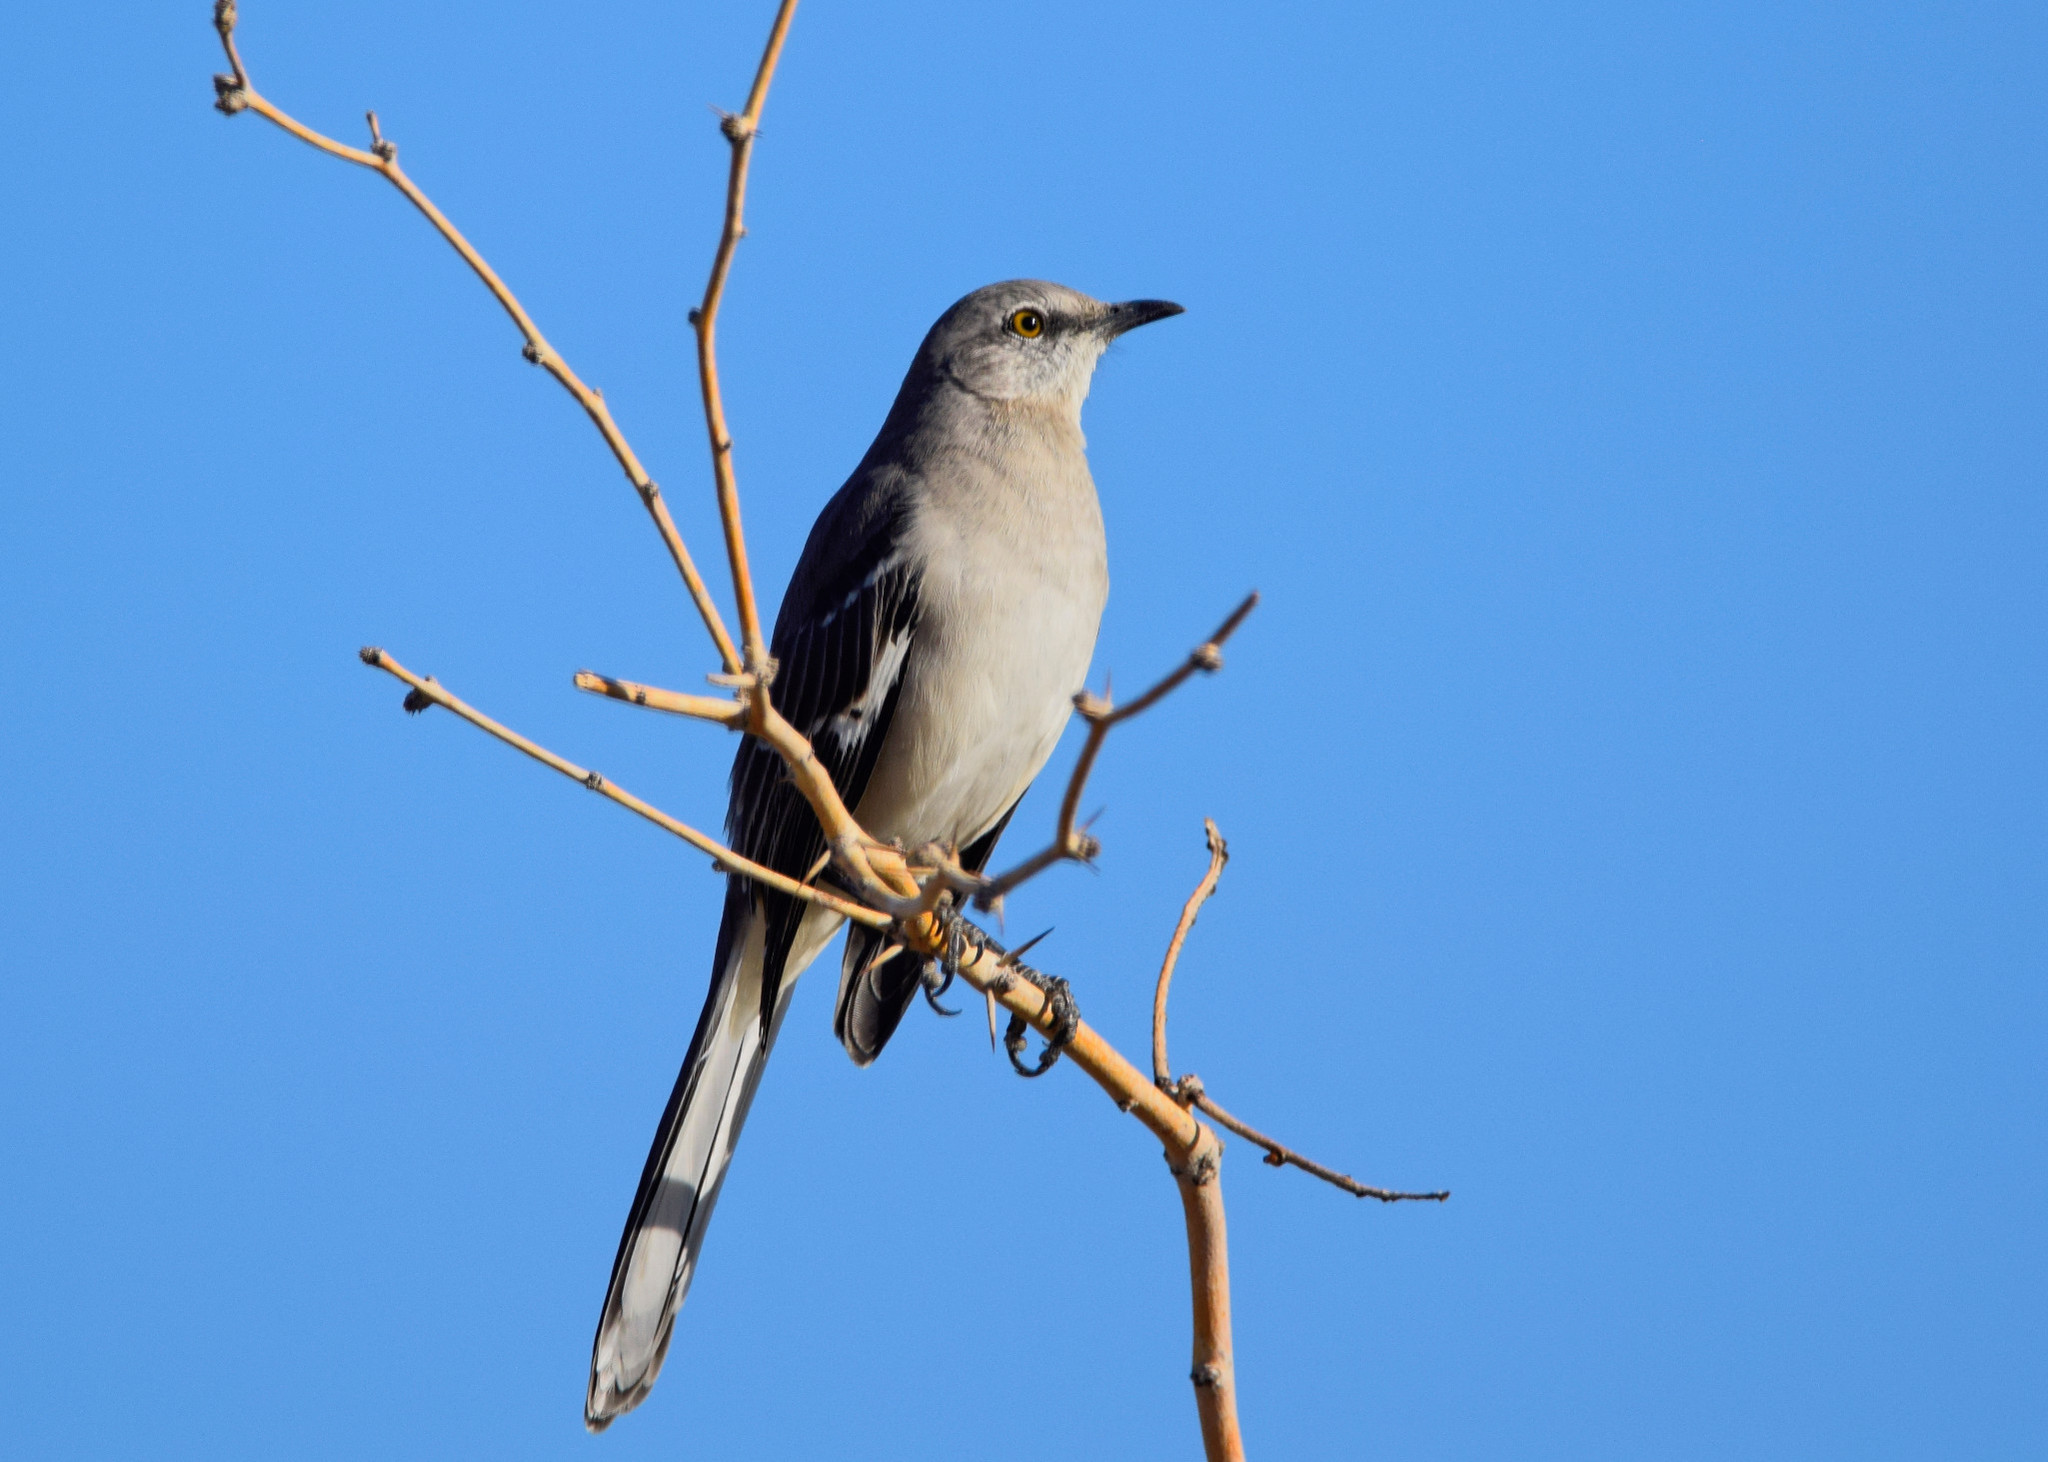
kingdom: Animalia
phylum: Chordata
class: Aves
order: Passeriformes
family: Mimidae
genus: Mimus
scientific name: Mimus polyglottos
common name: Northern mockingbird
